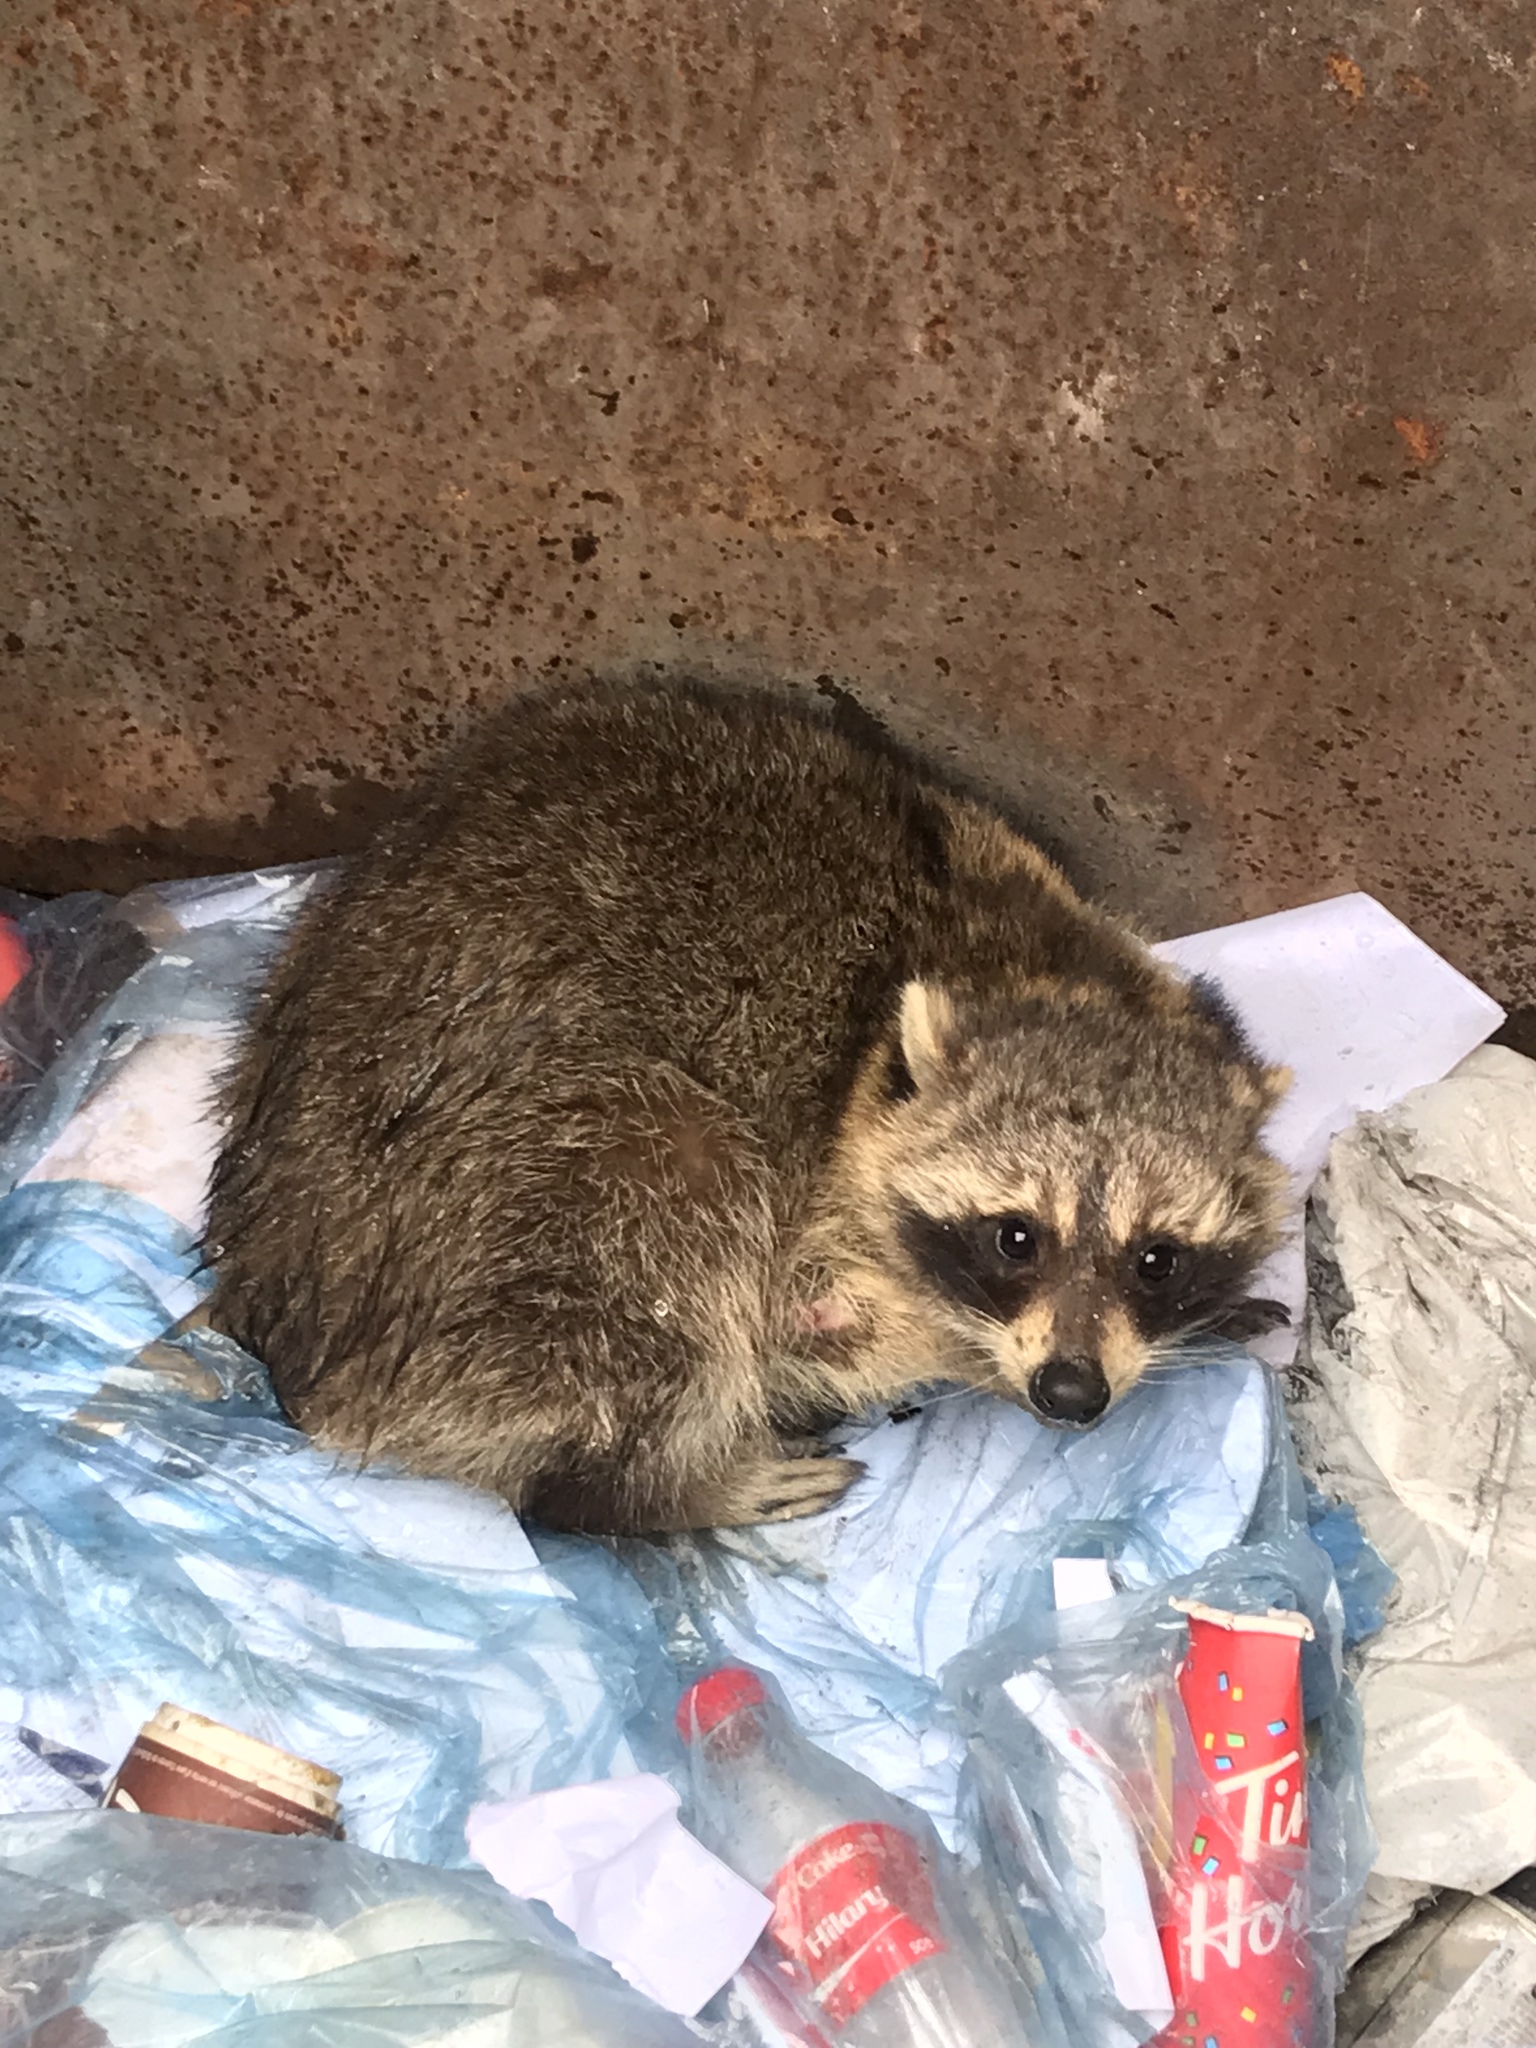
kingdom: Animalia
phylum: Chordata
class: Mammalia
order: Carnivora
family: Procyonidae
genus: Procyon
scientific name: Procyon lotor
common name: Raccoon
